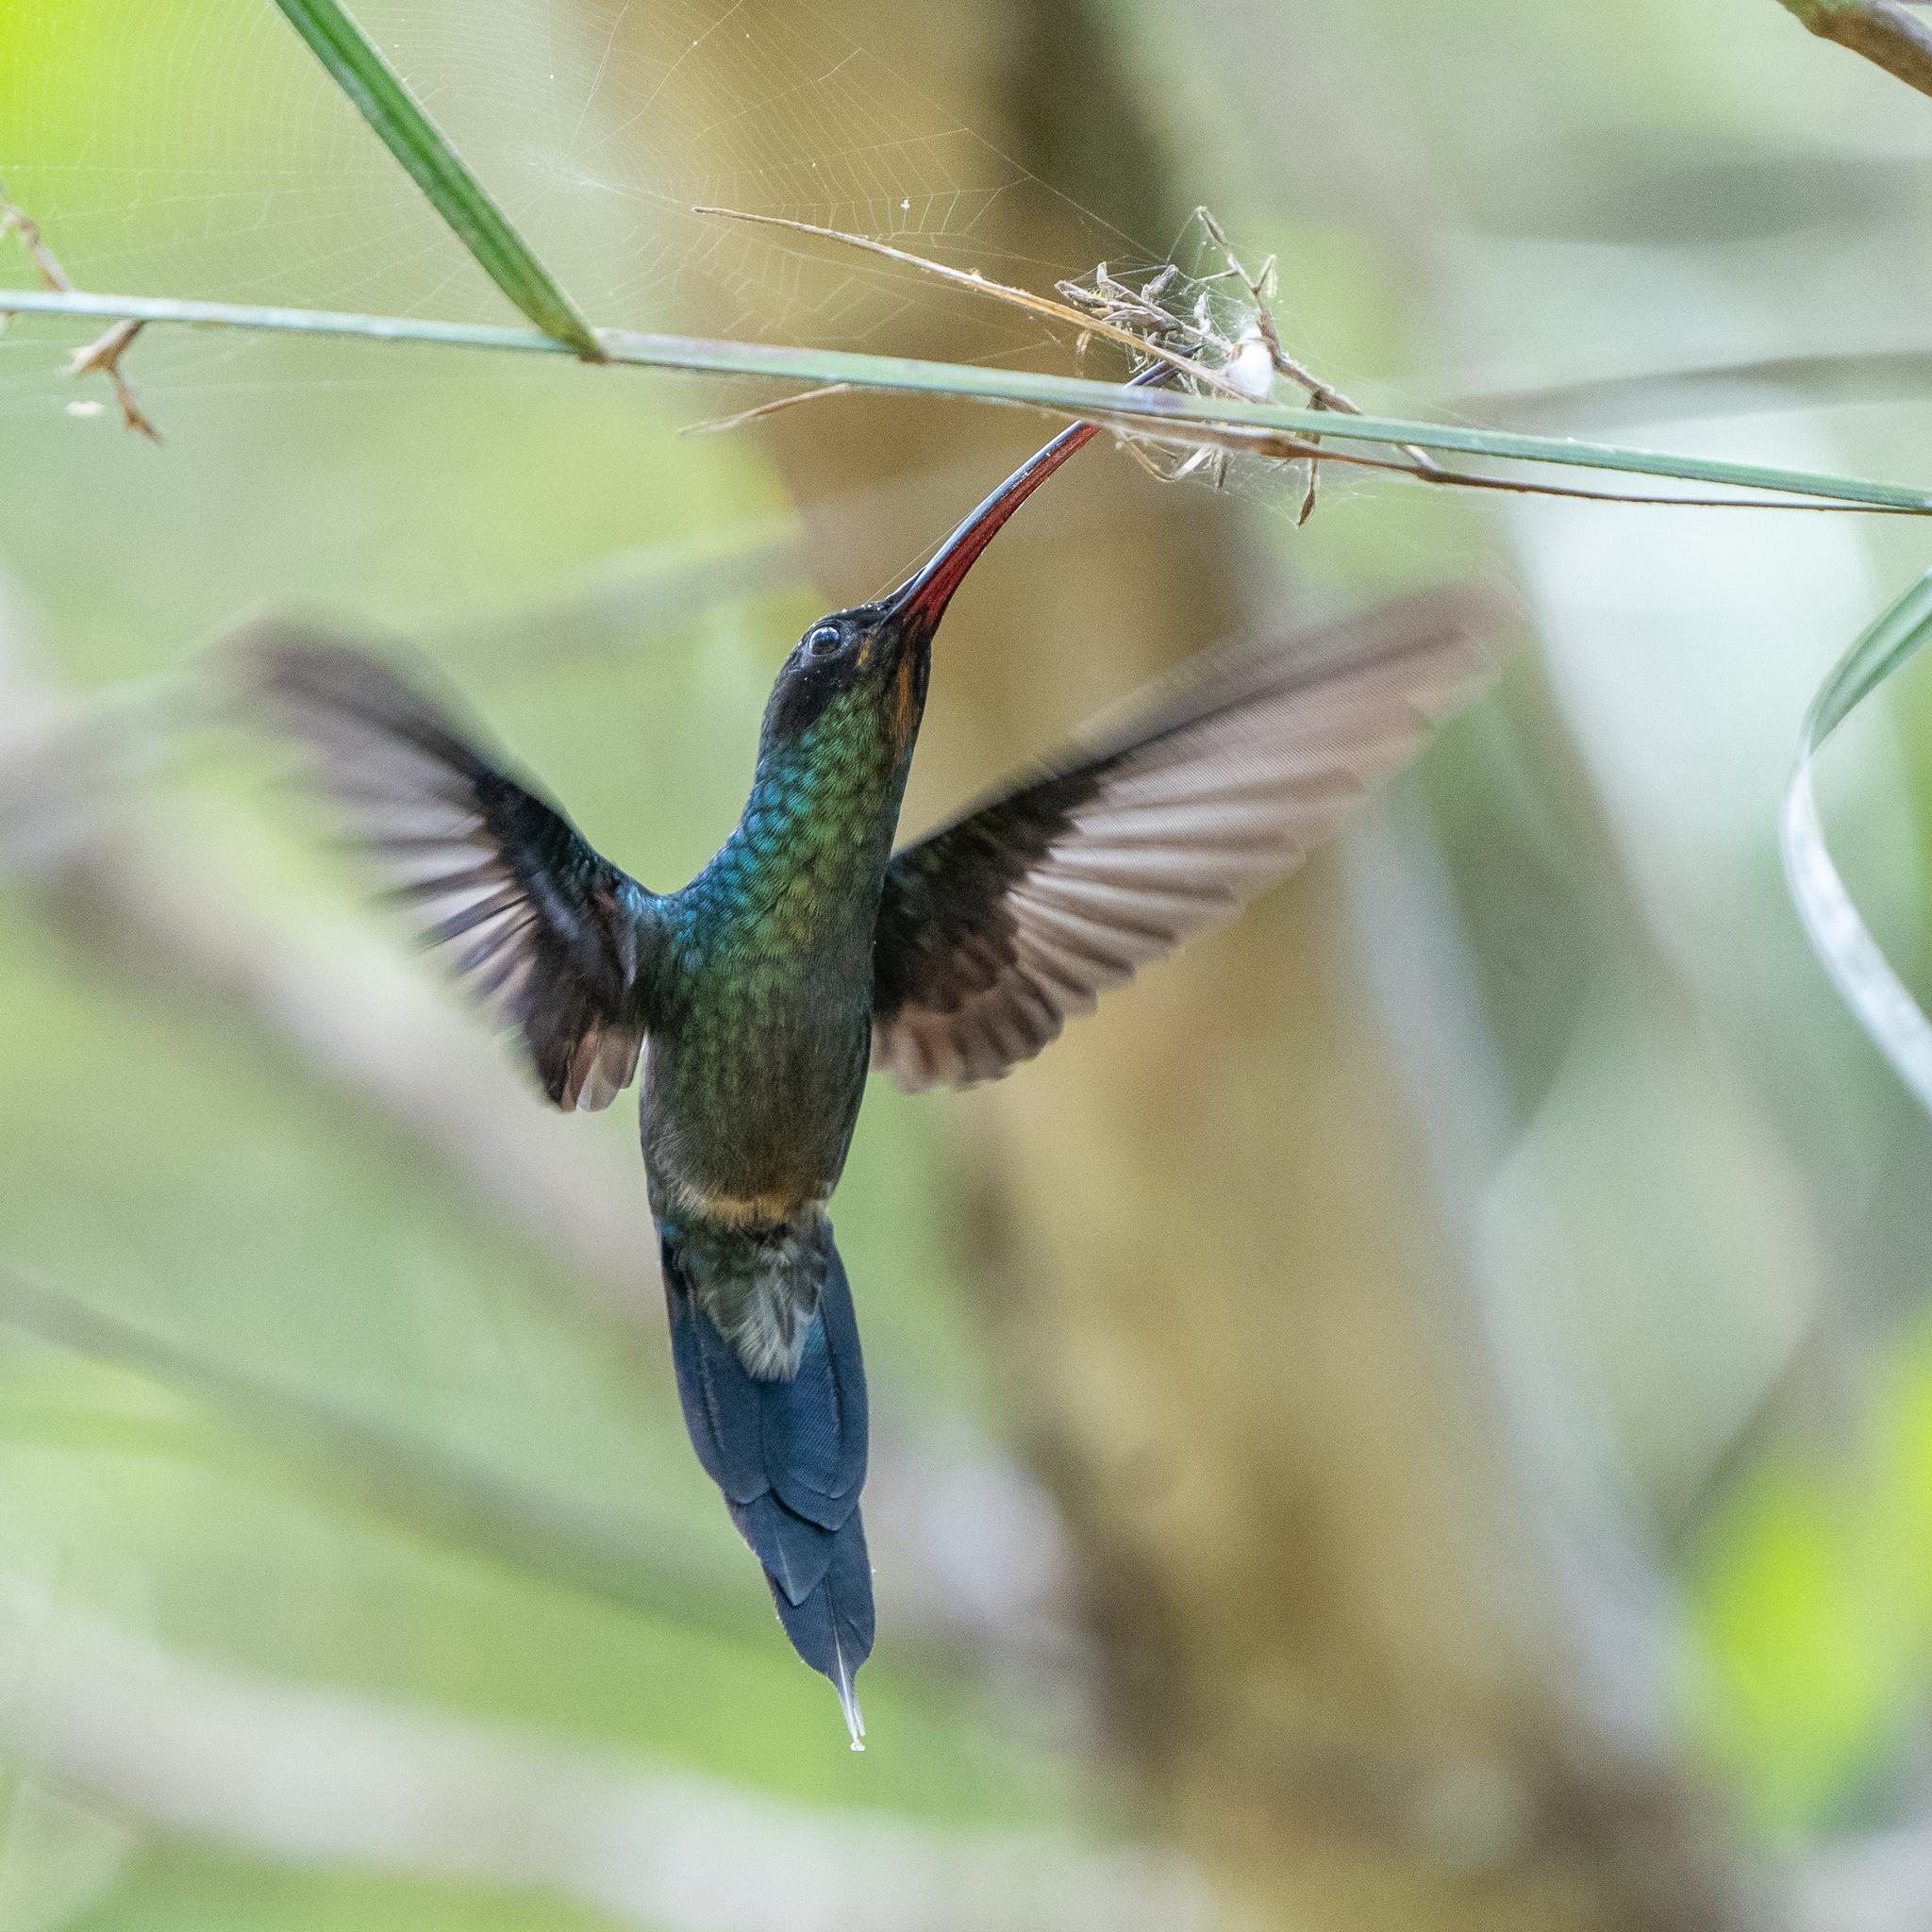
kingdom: Animalia
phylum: Chordata
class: Aves
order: Apodiformes
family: Trochilidae
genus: Phaethornis
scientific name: Phaethornis guy
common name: Green hermit
